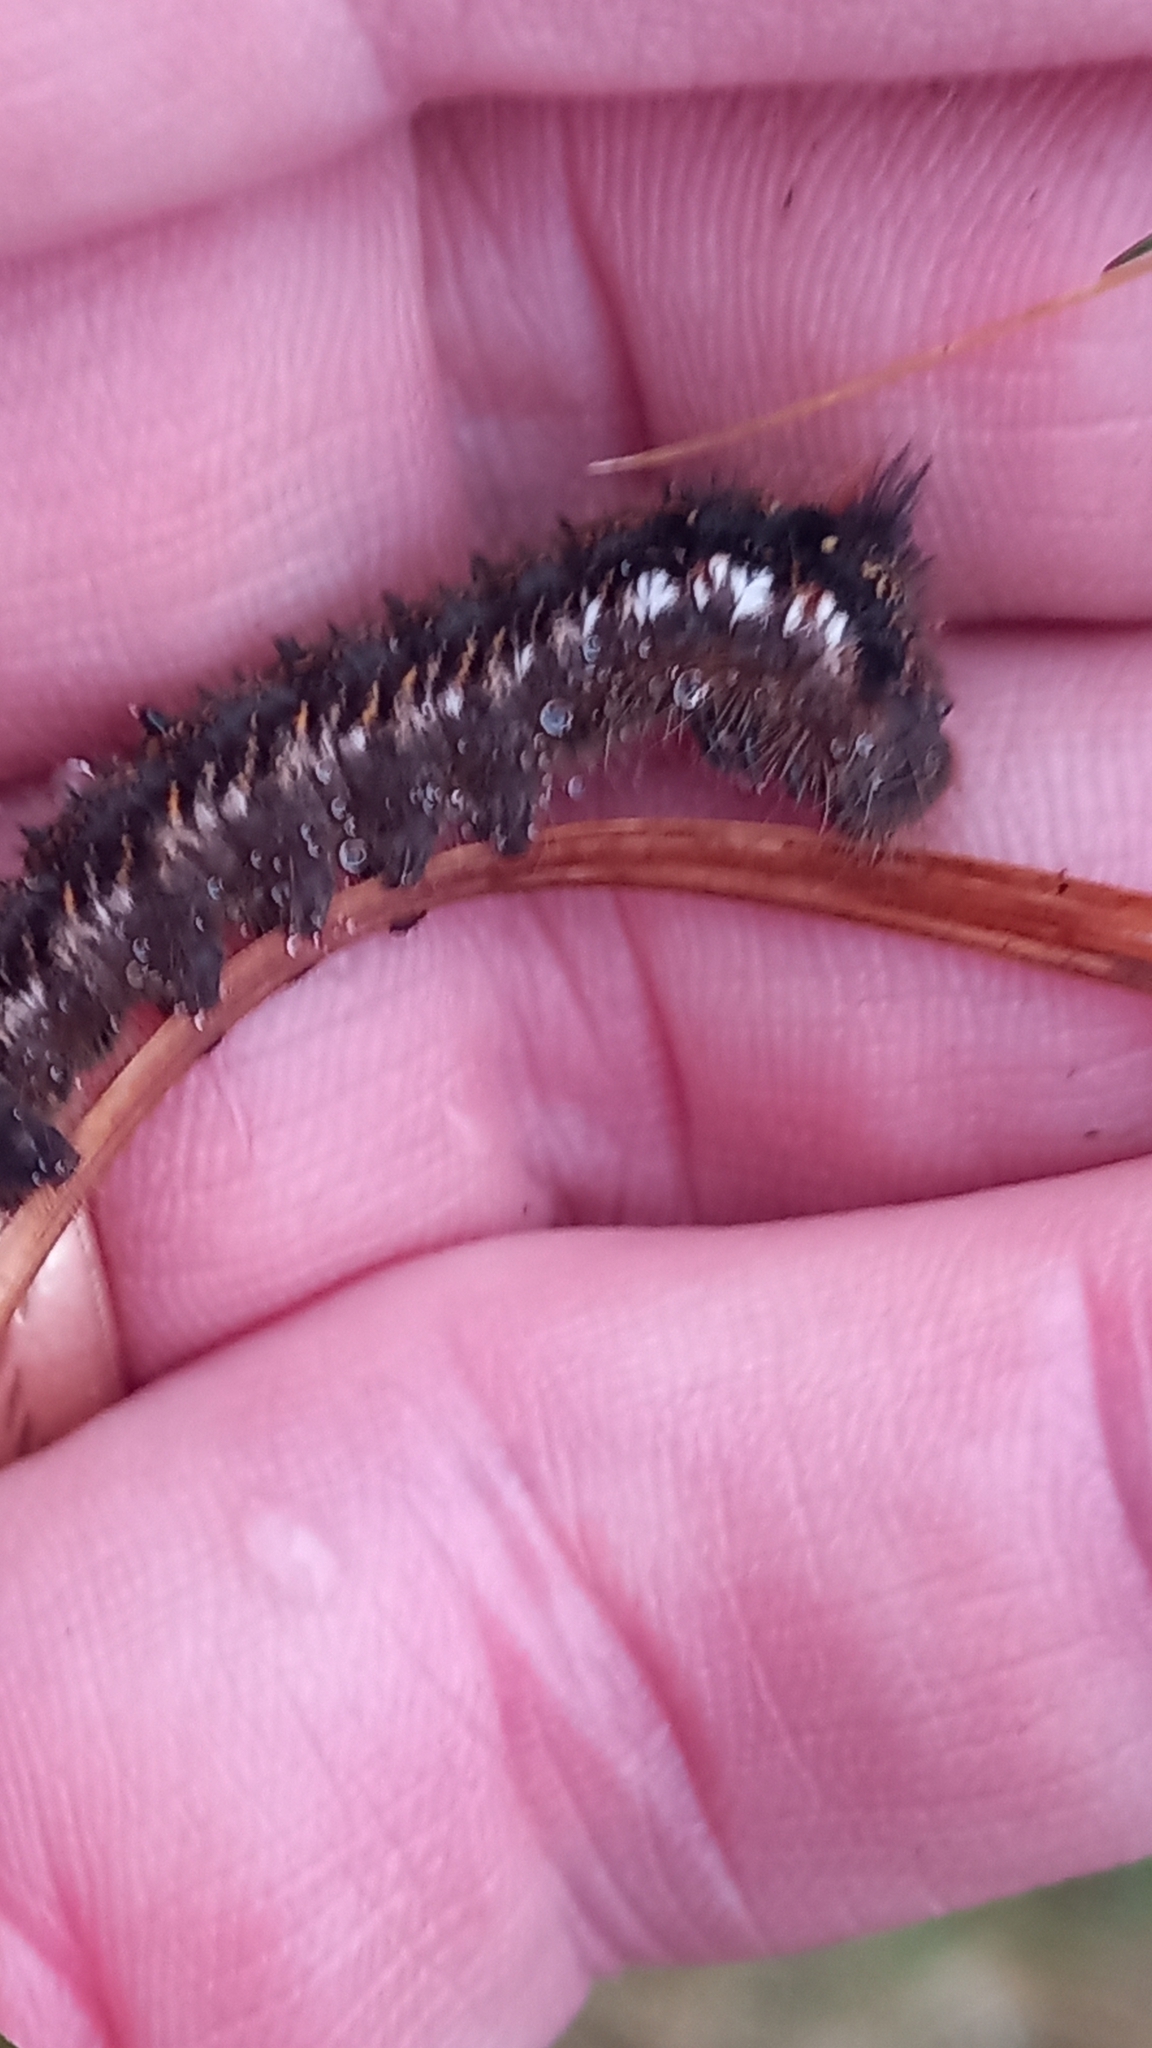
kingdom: Animalia
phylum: Arthropoda
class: Insecta
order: Lepidoptera
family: Lasiocampidae
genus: Euthrix
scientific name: Euthrix potatoria
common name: Drinker
